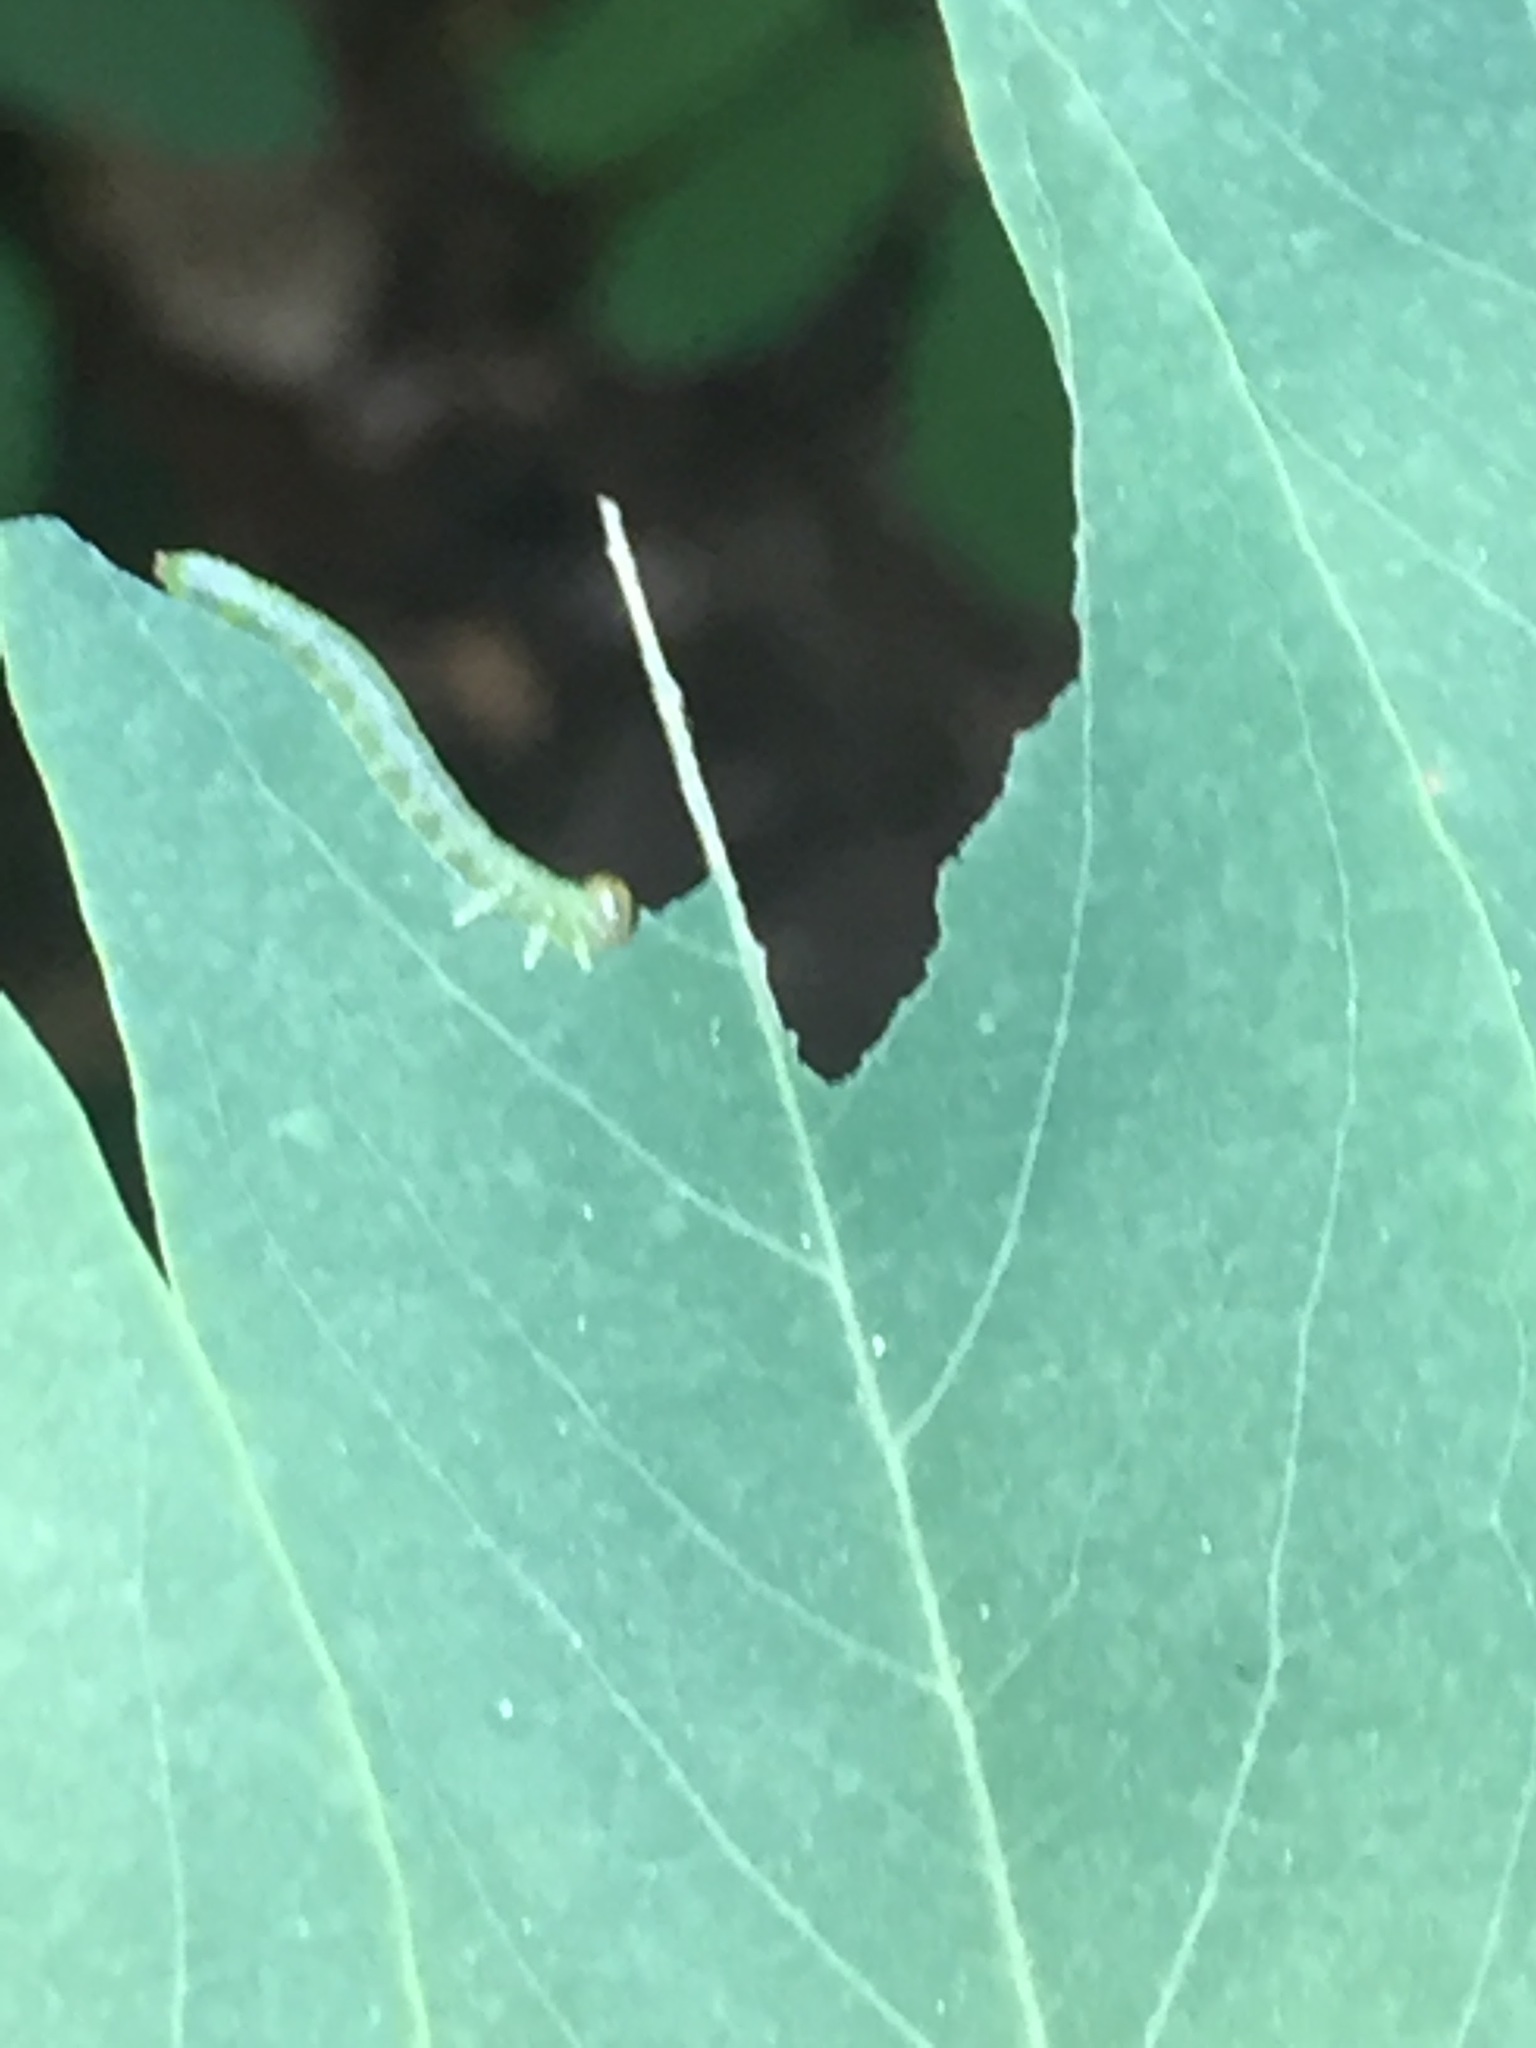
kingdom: Animalia
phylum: Arthropoda
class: Insecta
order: Hymenoptera
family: Tenthredinidae
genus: Euura
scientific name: Euura tibialis
